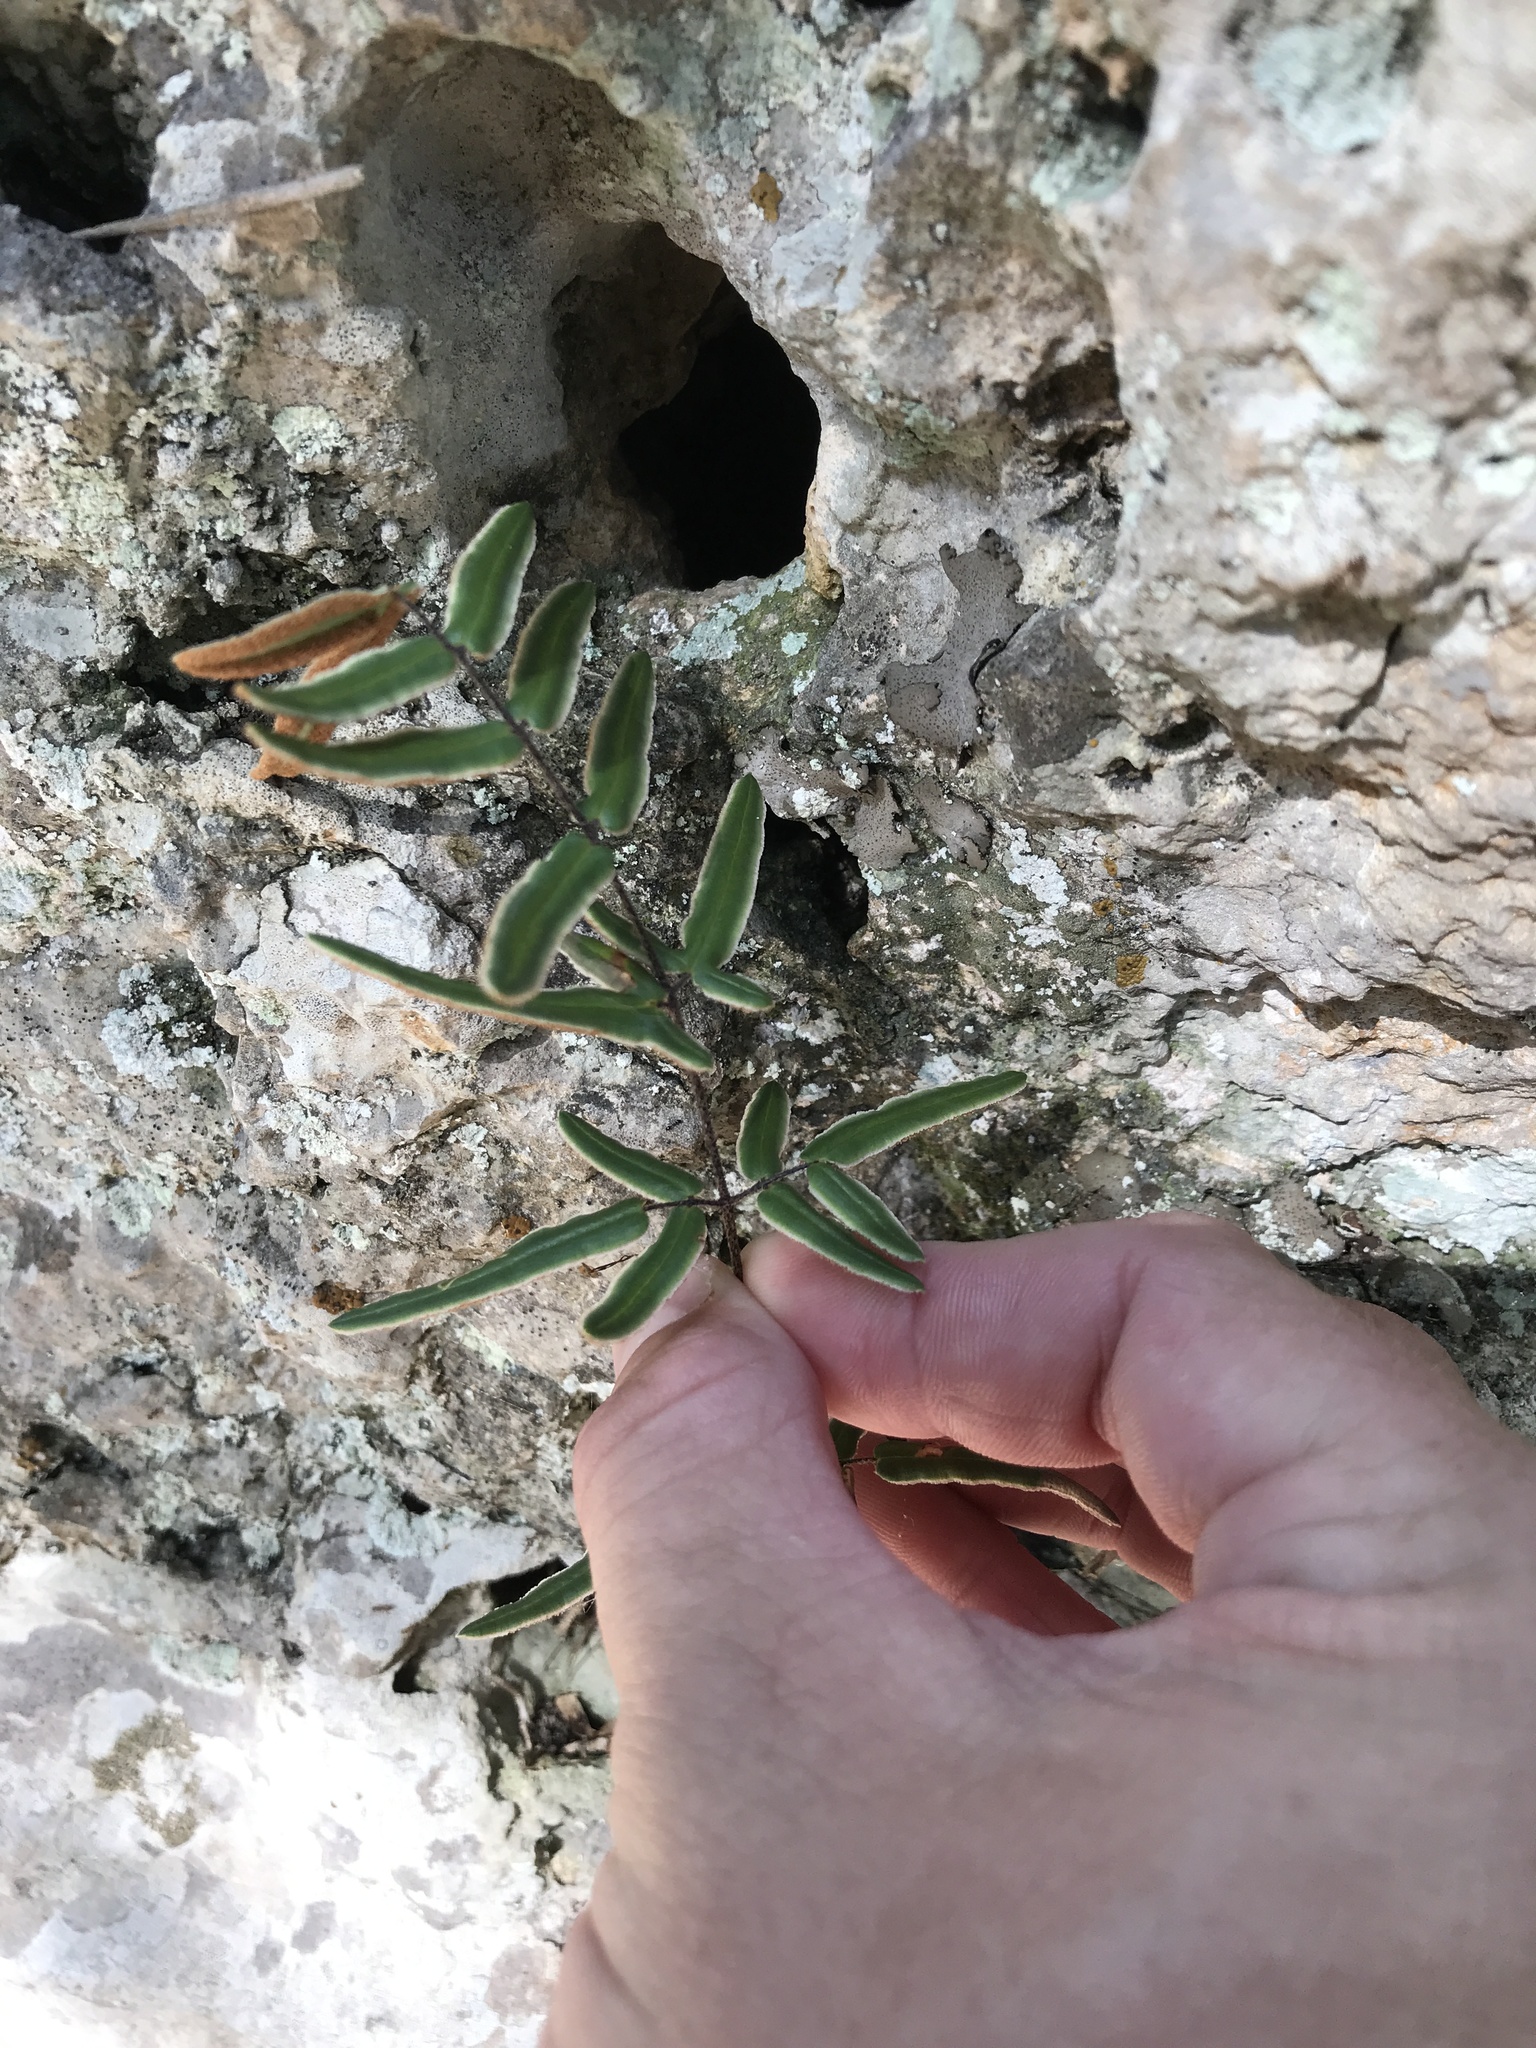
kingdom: Plantae
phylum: Tracheophyta
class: Polypodiopsida
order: Polypodiales
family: Pteridaceae
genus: Pellaea
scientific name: Pellaea atropurpurea
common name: Hairy cliffbrake
